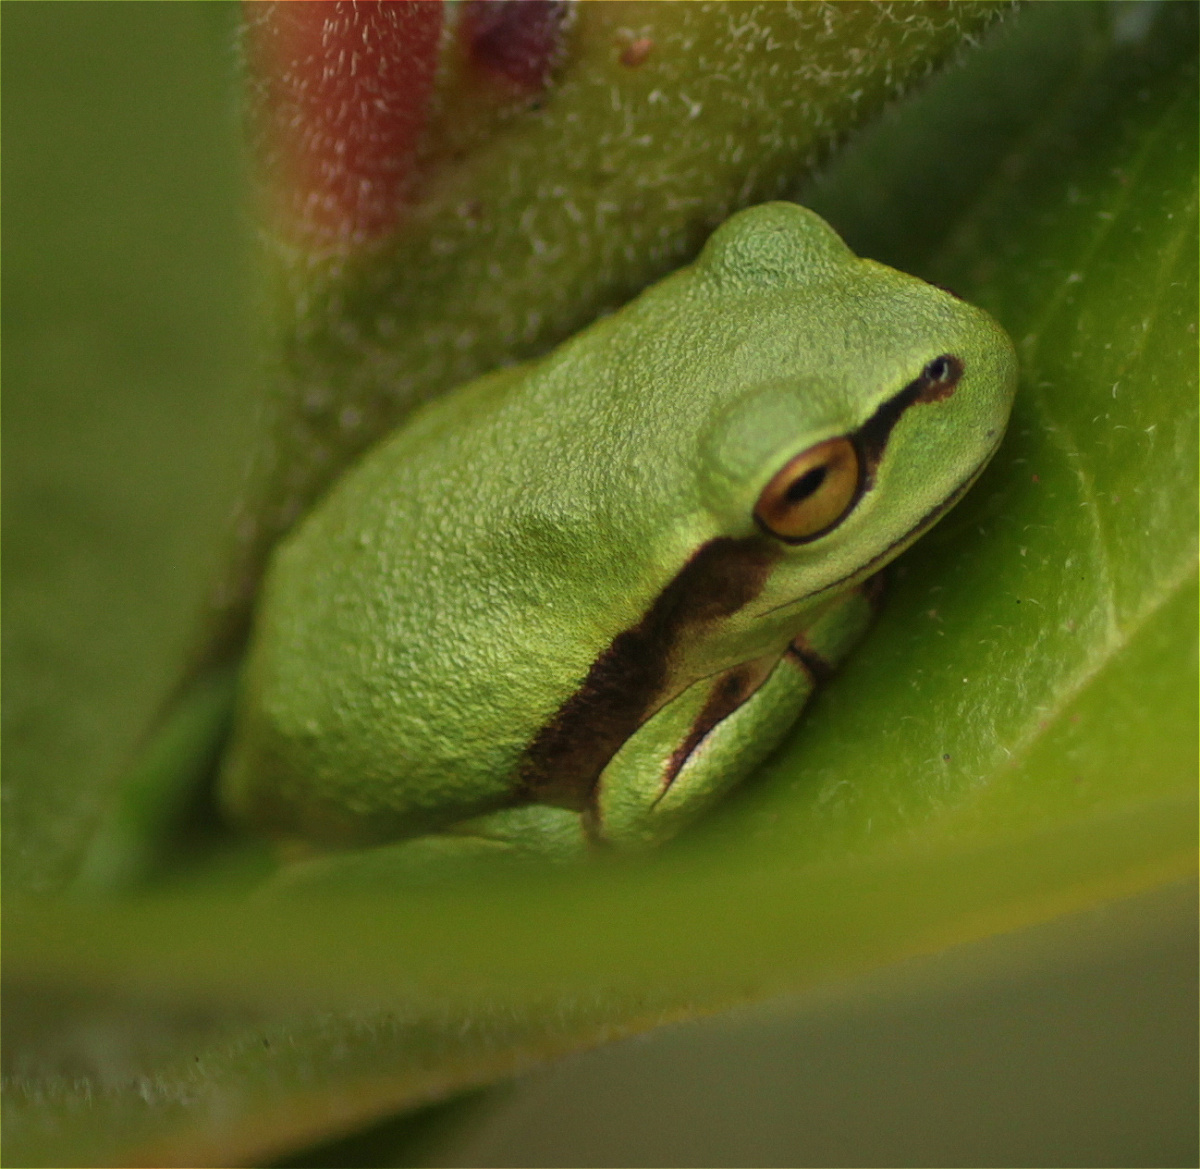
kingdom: Animalia
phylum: Chordata
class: Amphibia
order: Anura
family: Hylidae
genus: Dendropsophus
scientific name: Dendropsophus molitor
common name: Green dotted treefrog
